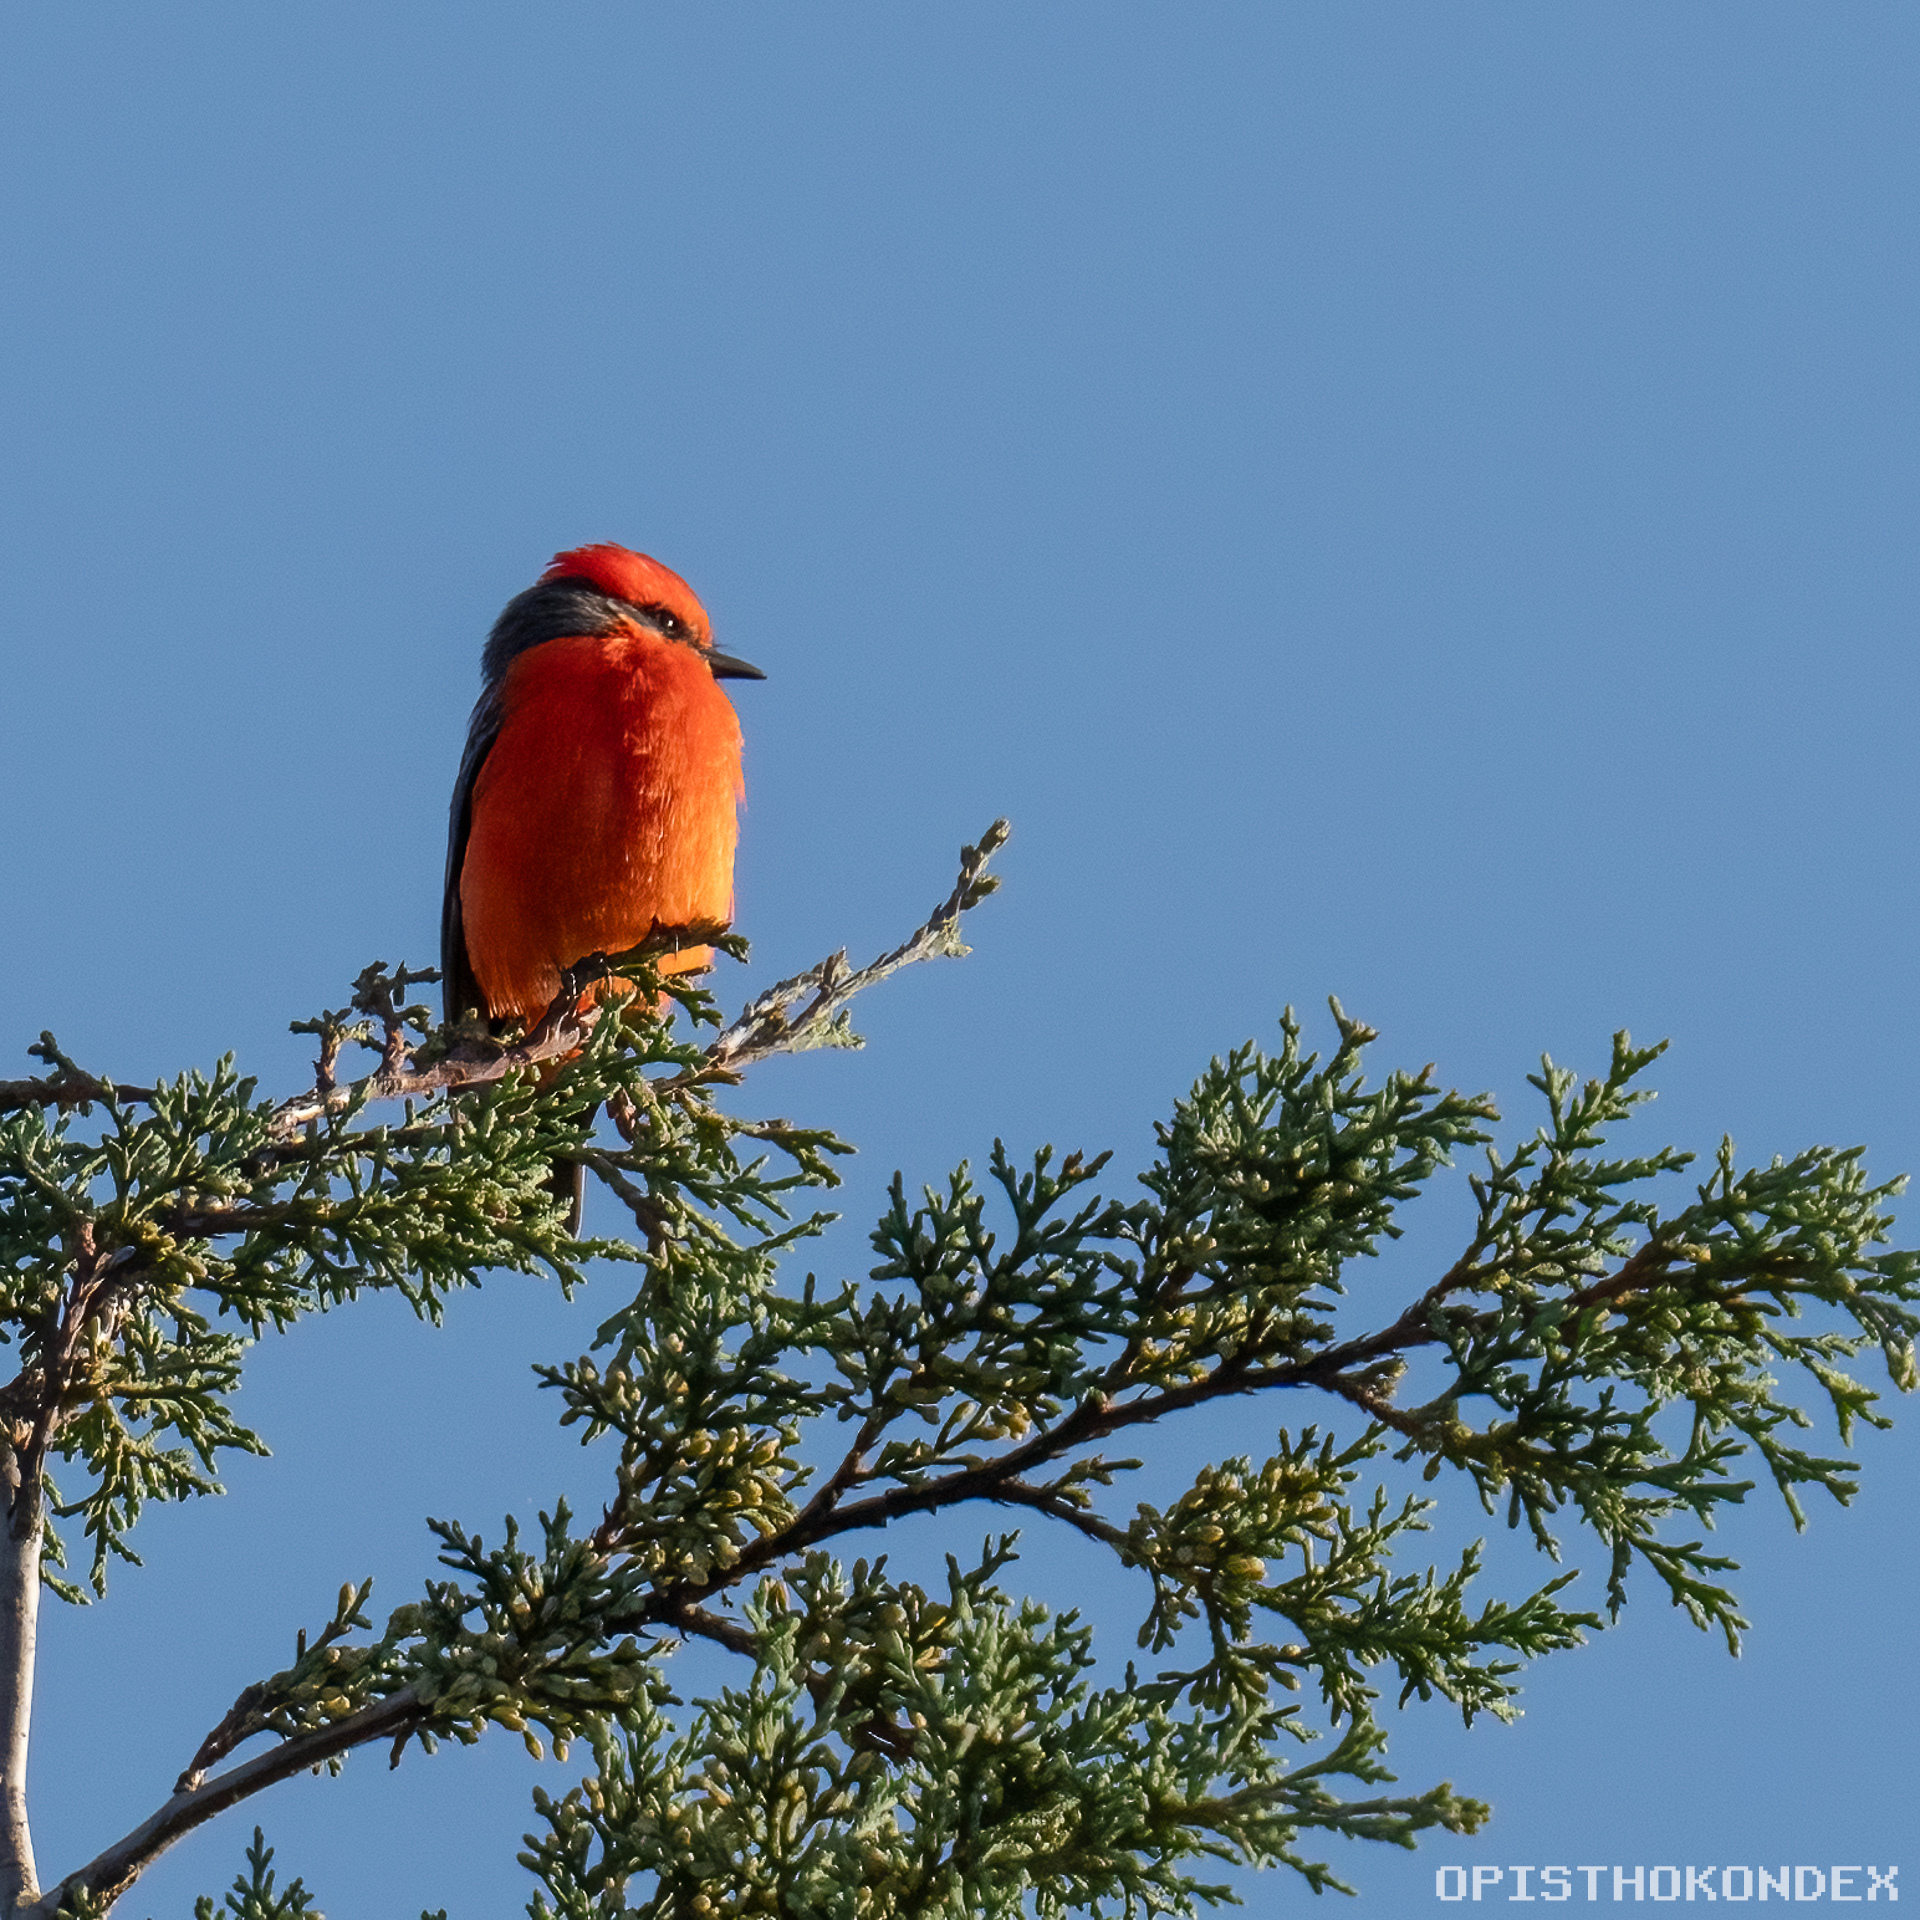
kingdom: Animalia
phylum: Chordata
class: Aves
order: Passeriformes
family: Tyrannidae
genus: Pyrocephalus
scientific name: Pyrocephalus rubinus
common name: Vermilion flycatcher
